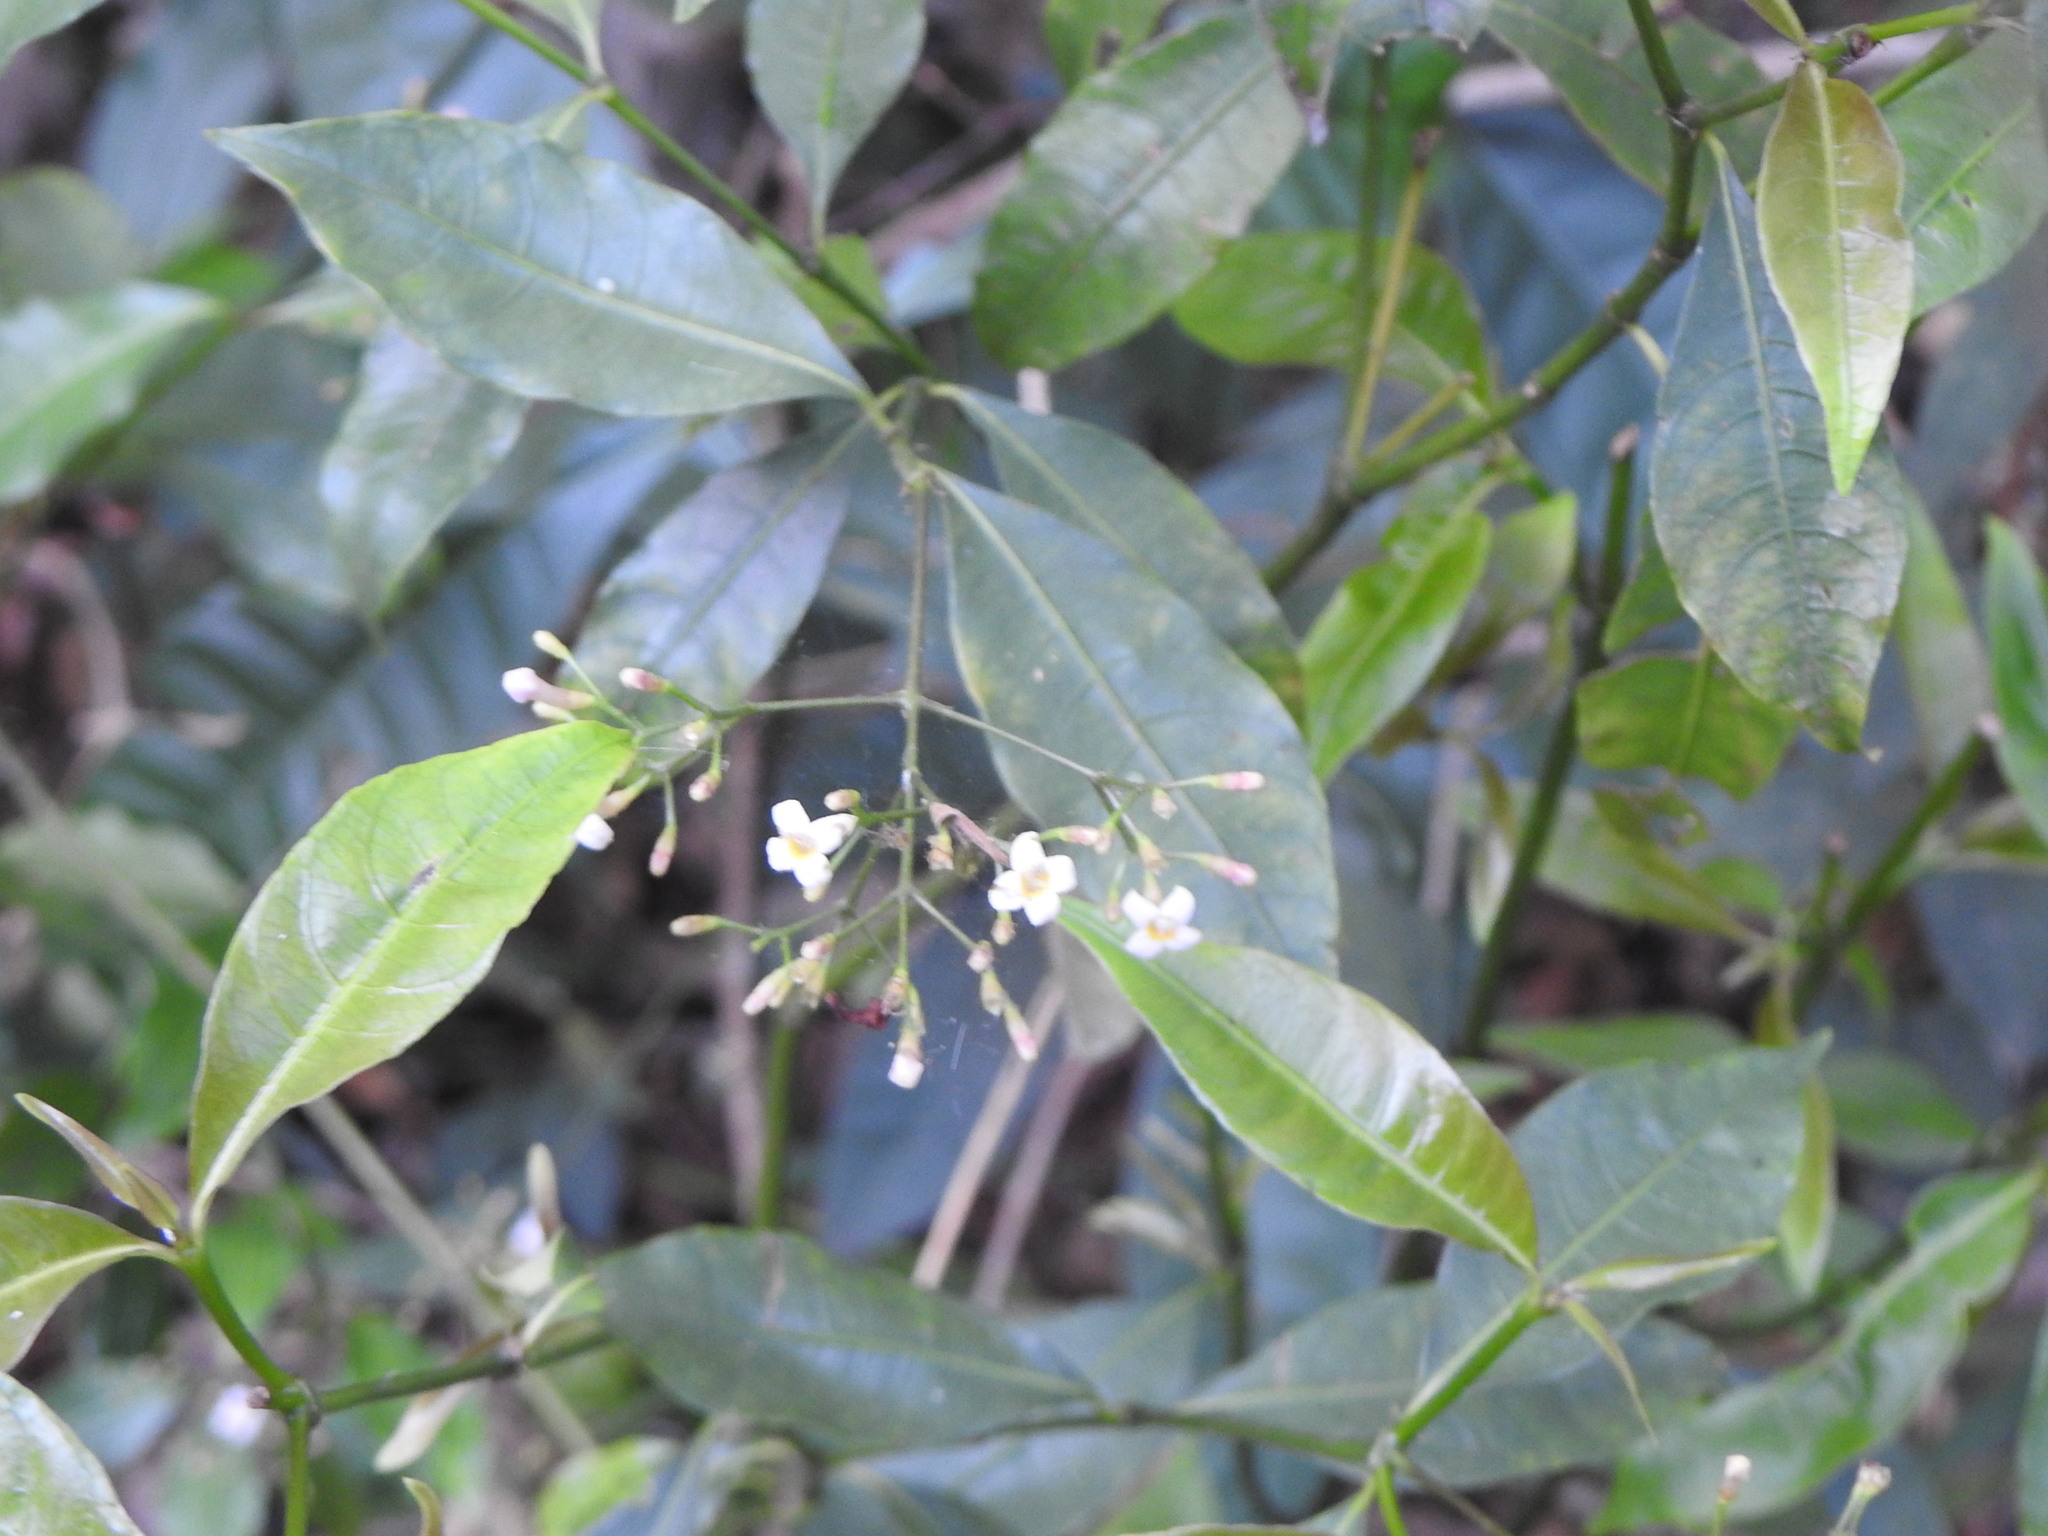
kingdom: Plantae
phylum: Tracheophyta
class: Magnoliopsida
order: Gentianales
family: Rubiaceae
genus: Psychotria
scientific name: Psychotria leiocarpa
